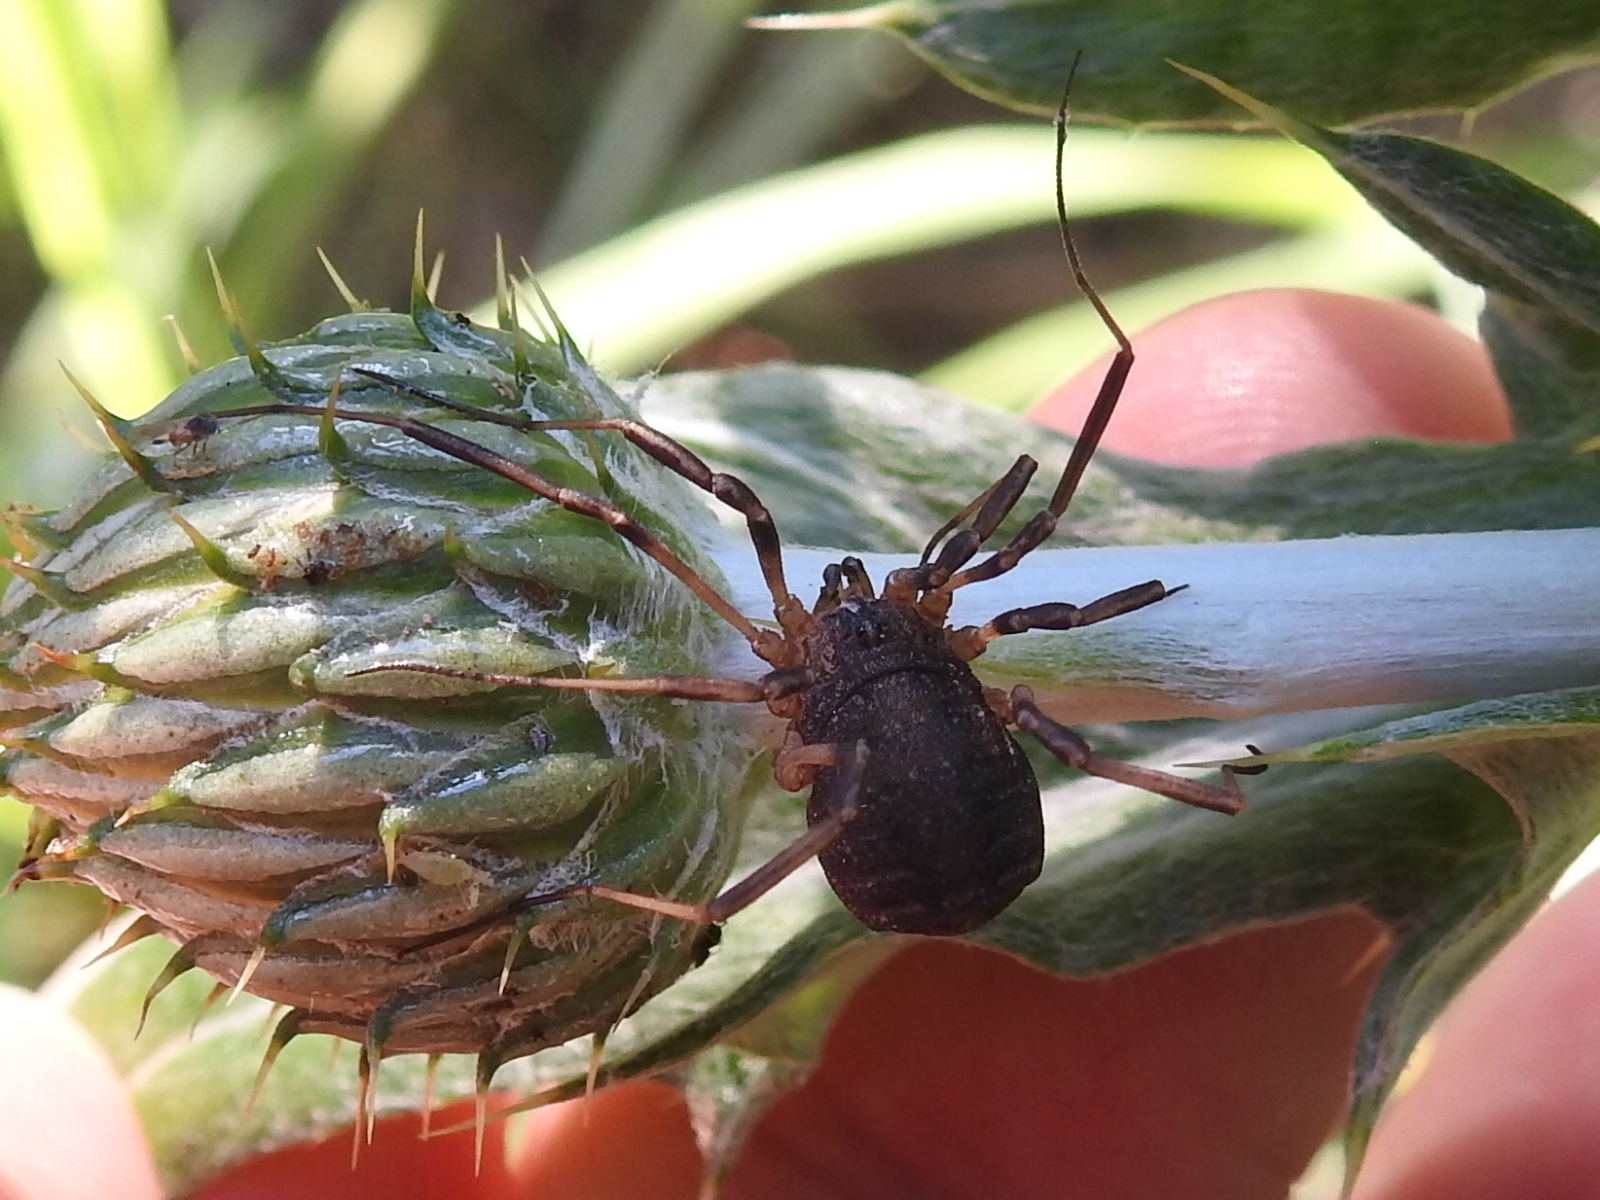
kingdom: Animalia
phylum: Arthropoda
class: Arachnida
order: Opiliones
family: Sclerosomatidae
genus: Eumesosoma
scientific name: Eumesosoma roeweri
